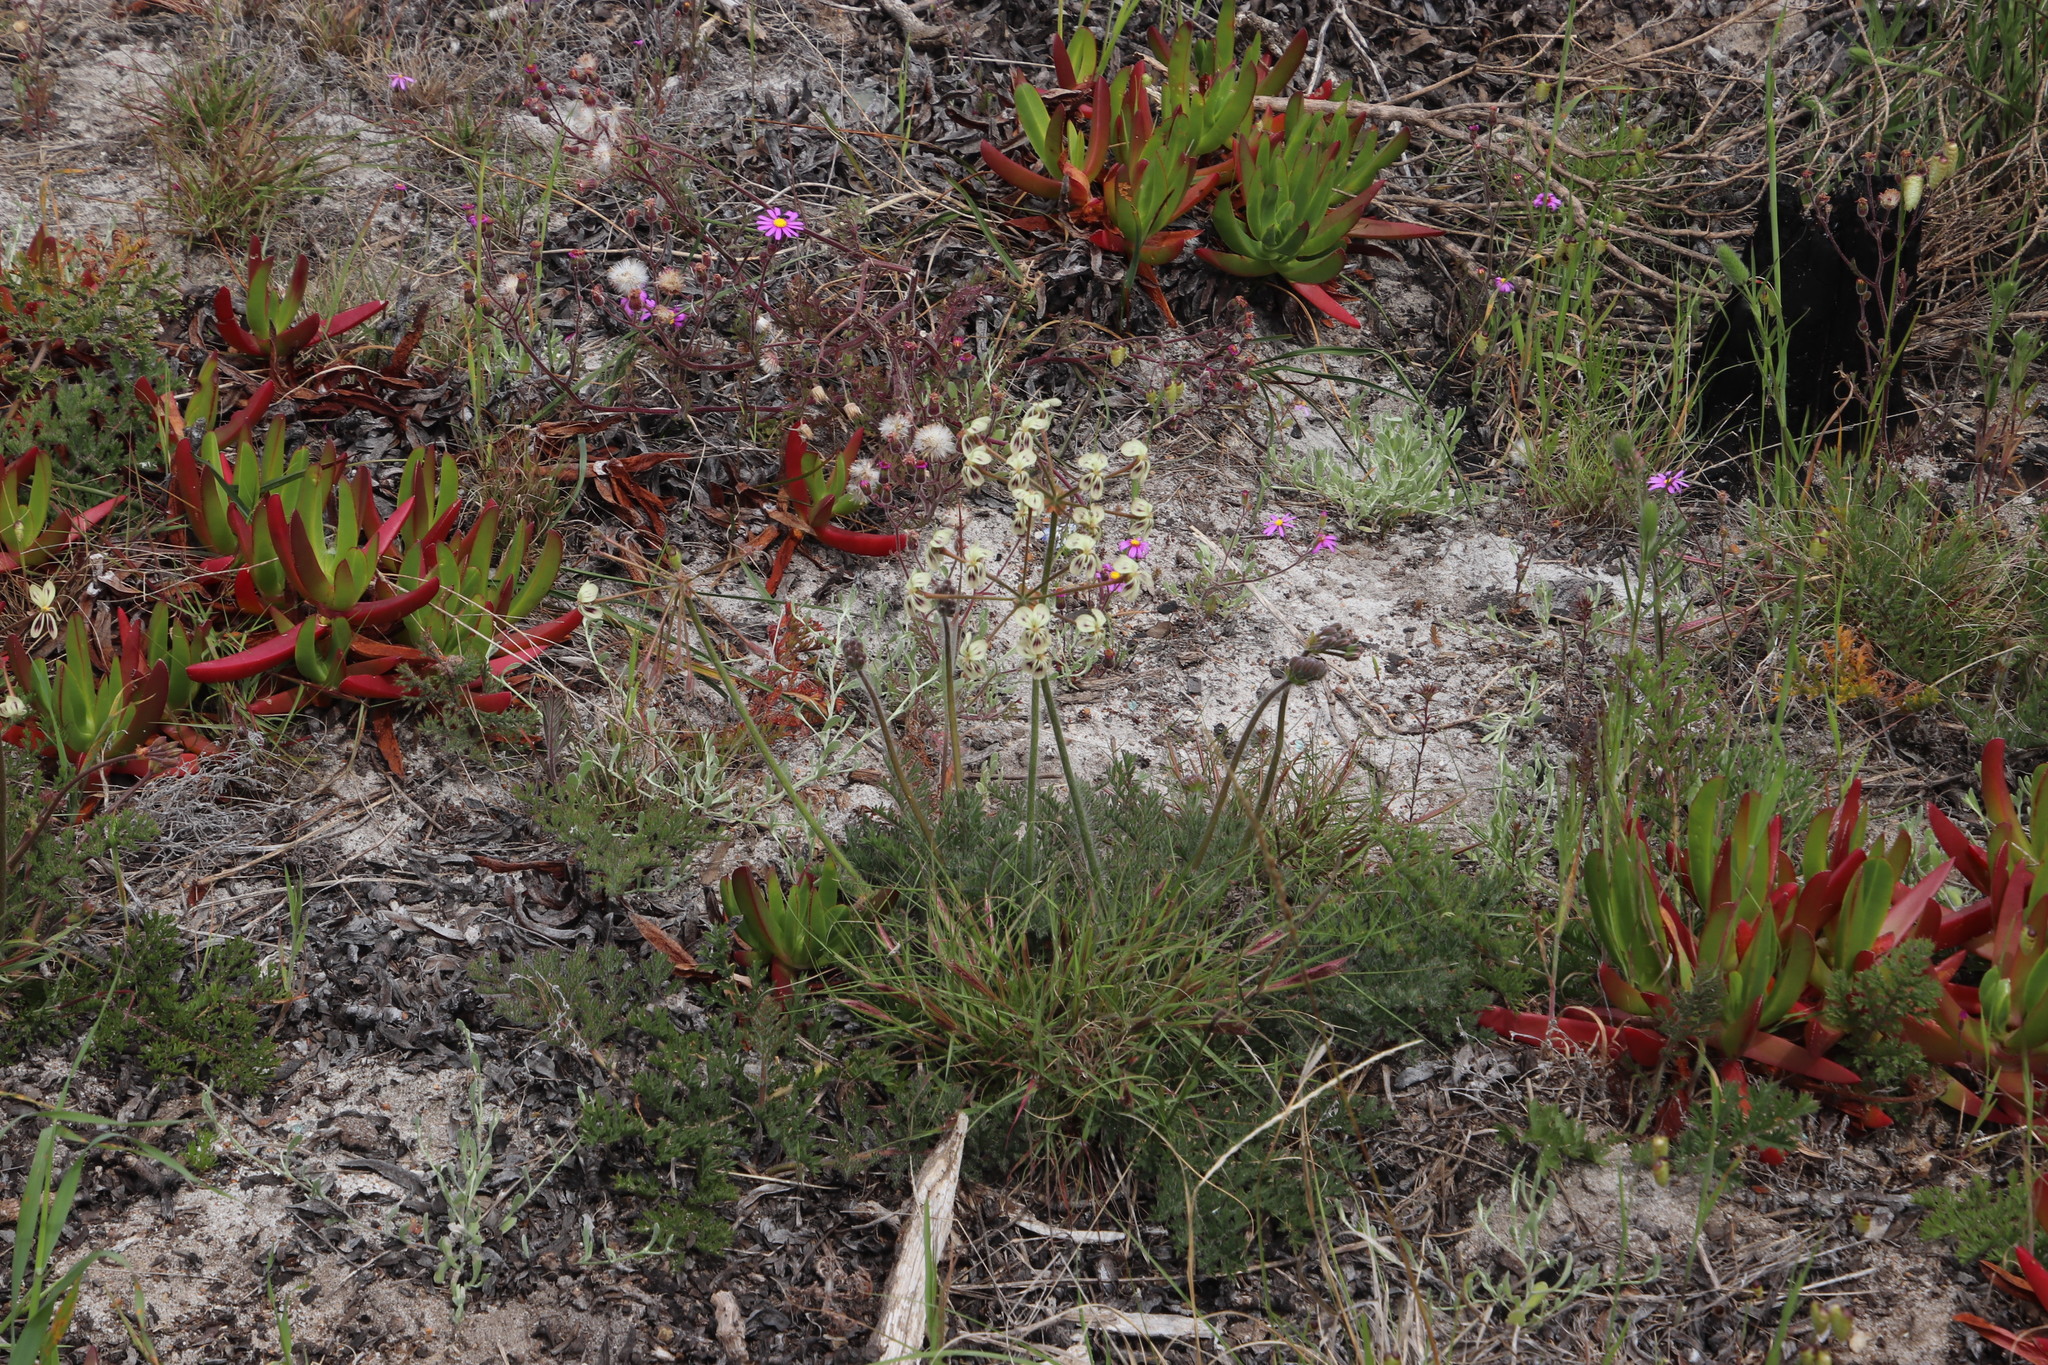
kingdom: Plantae
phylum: Tracheophyta
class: Magnoliopsida
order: Geraniales
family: Geraniaceae
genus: Pelargonium
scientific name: Pelargonium triste
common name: Night-scent pelargonium
